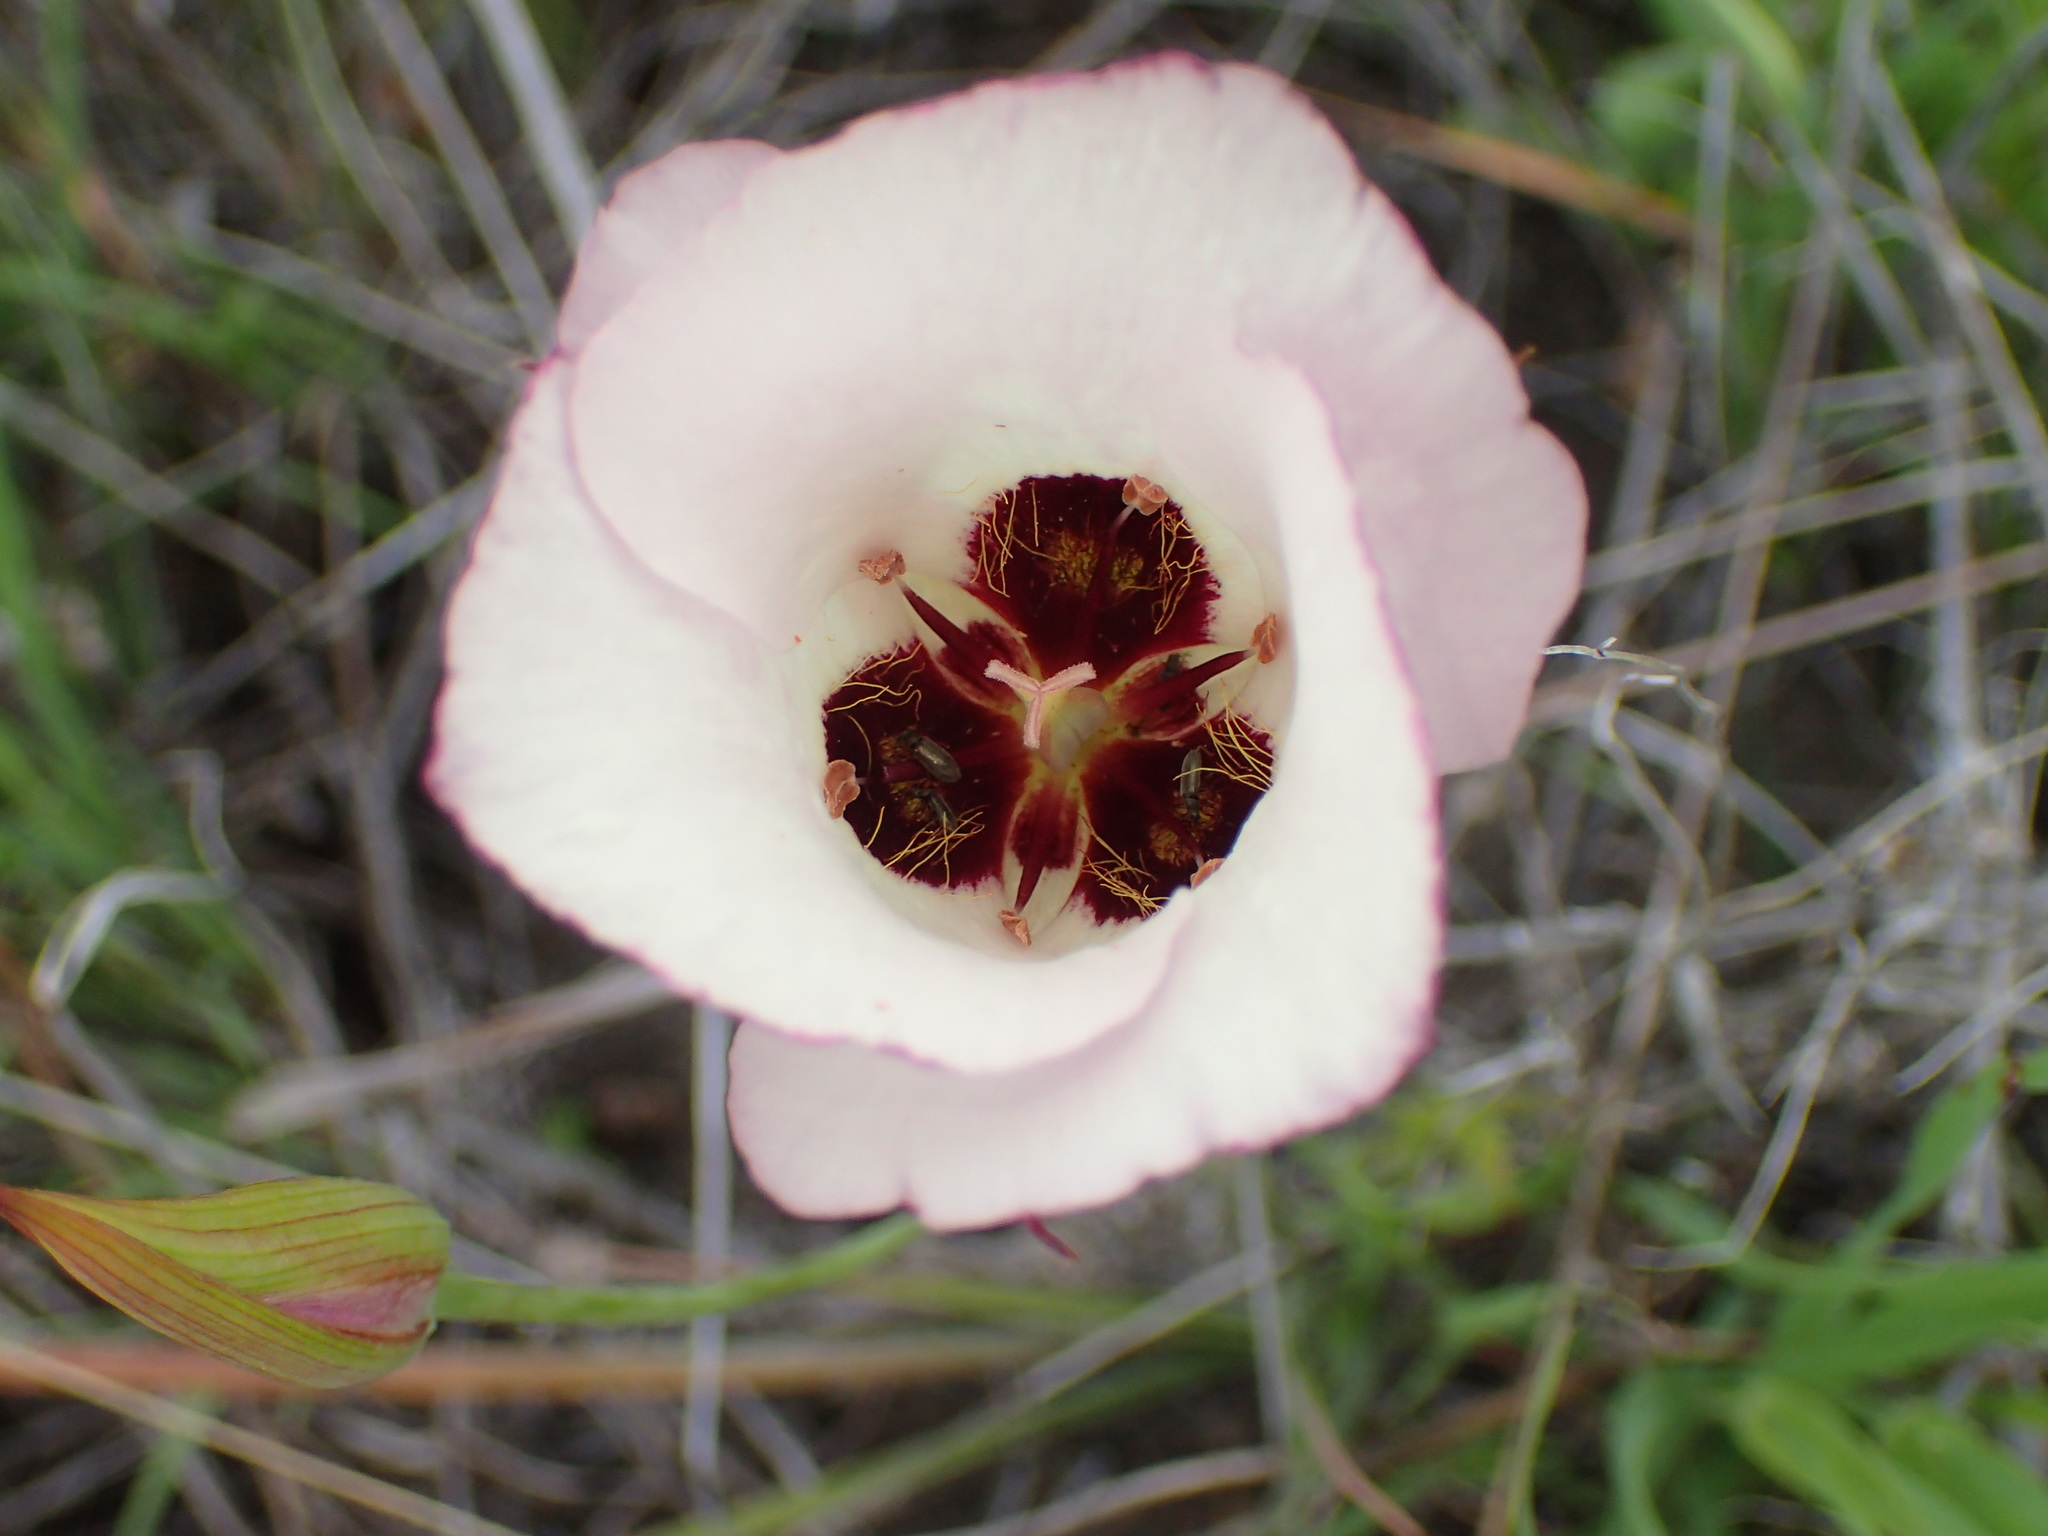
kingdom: Plantae
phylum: Tracheophyta
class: Liliopsida
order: Liliales
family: Liliaceae
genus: Calochortus
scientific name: Calochortus catalinae
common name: Catalina mariposa-lily
